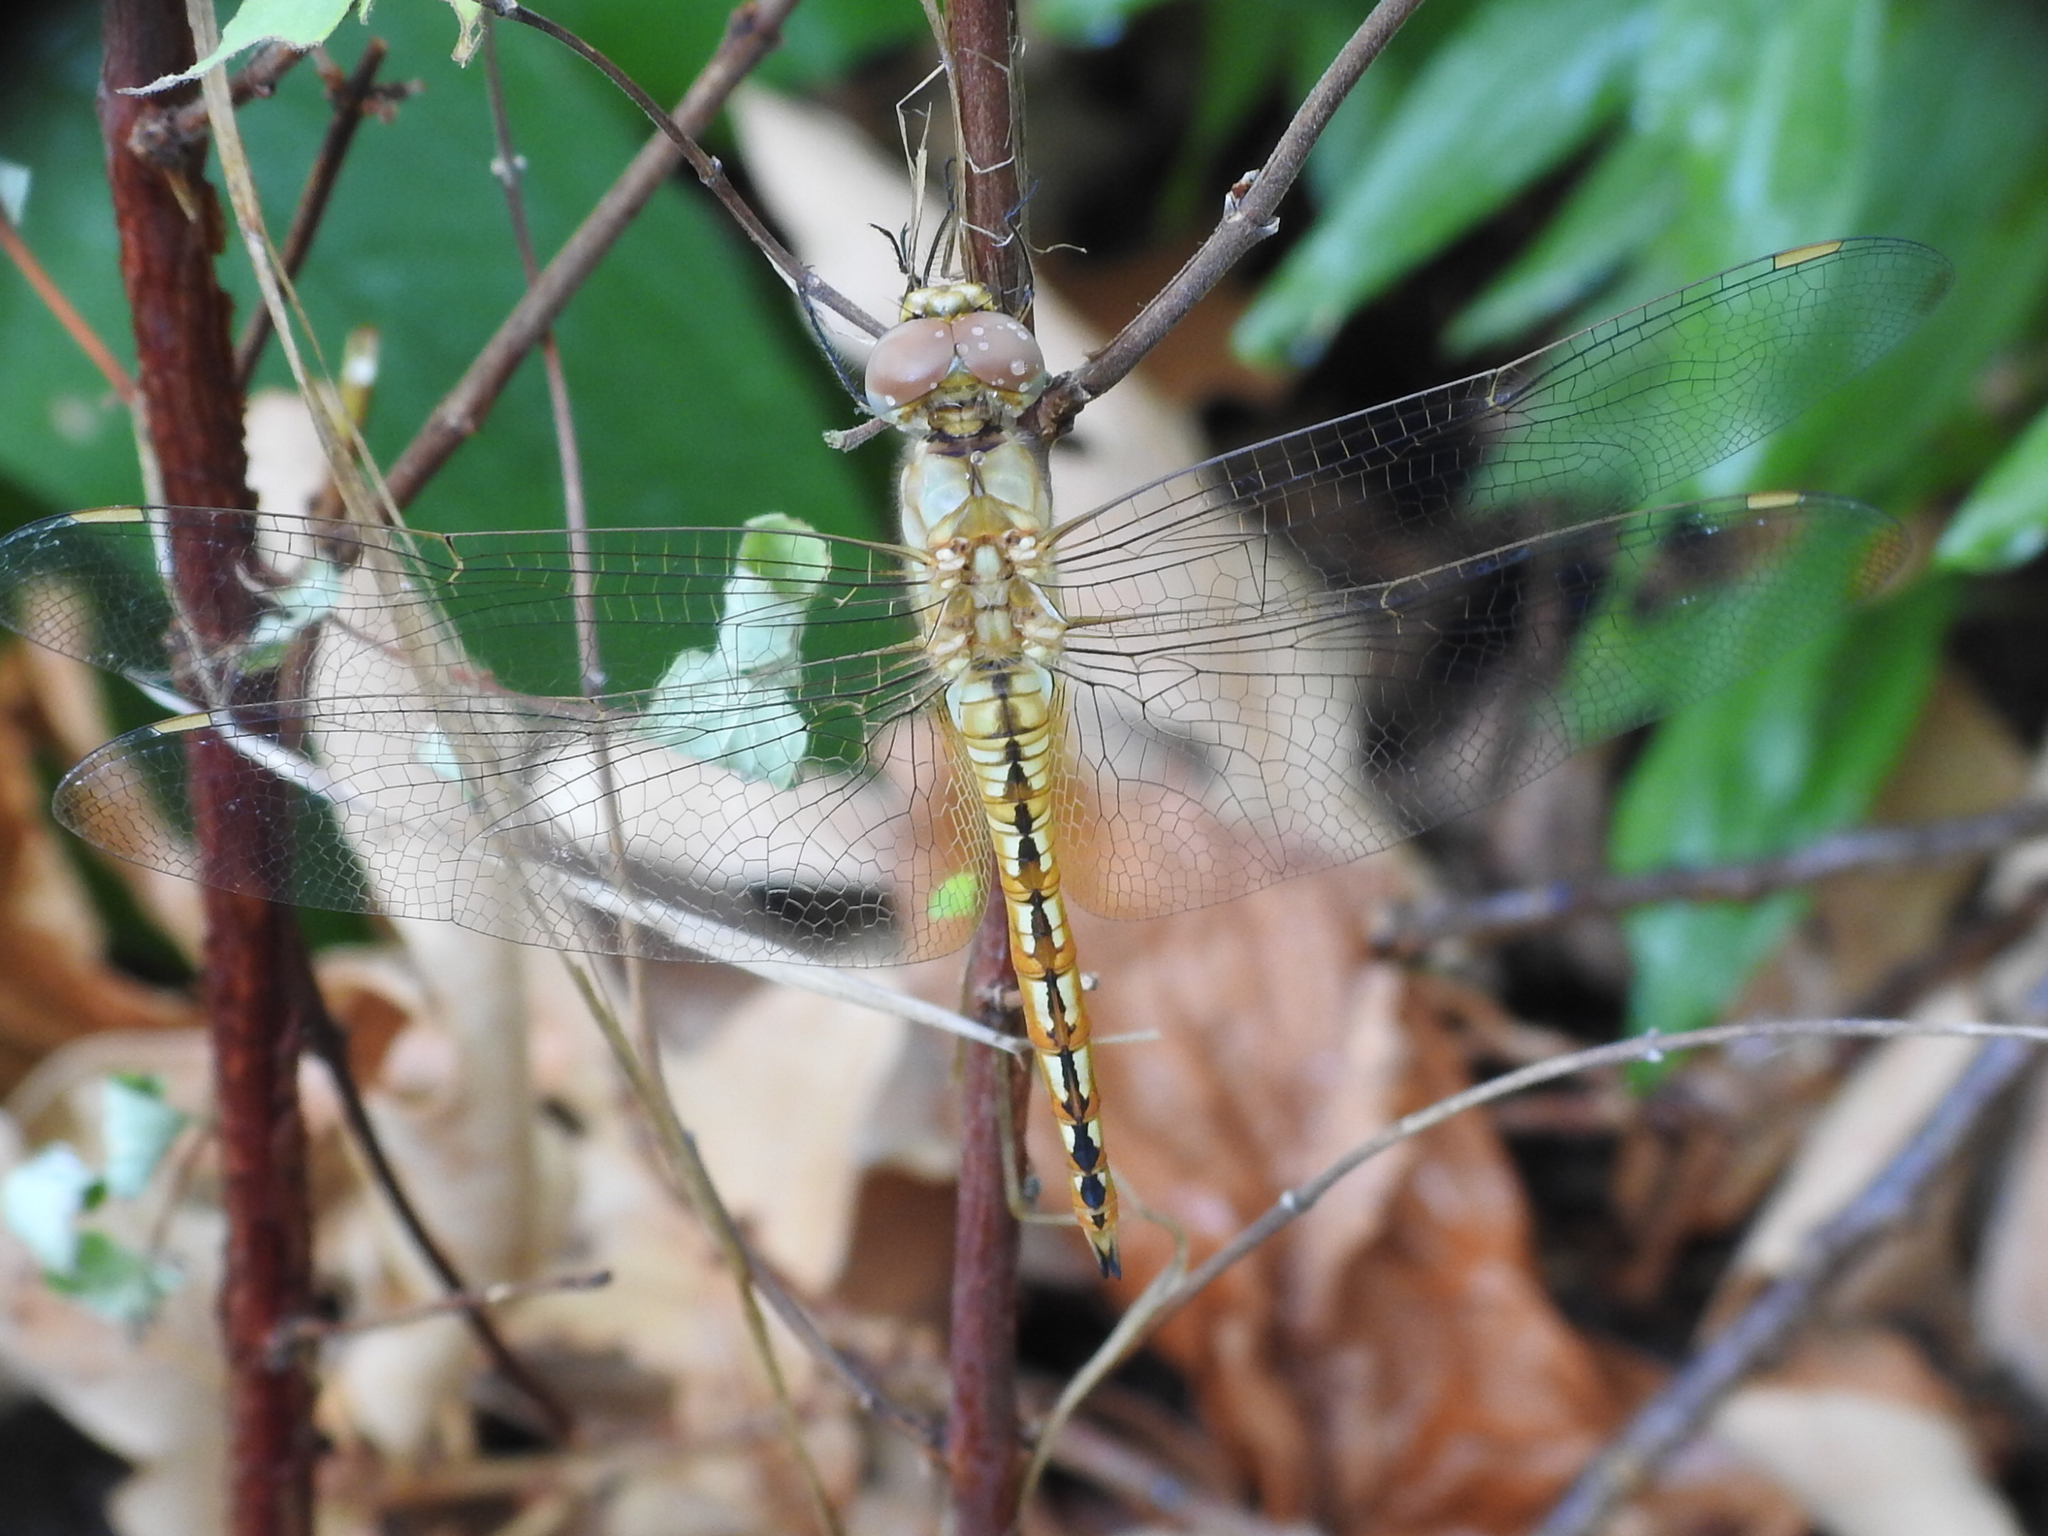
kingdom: Animalia
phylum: Arthropoda
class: Insecta
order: Odonata
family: Libellulidae
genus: Pantala
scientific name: Pantala flavescens
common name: Wandering glider
